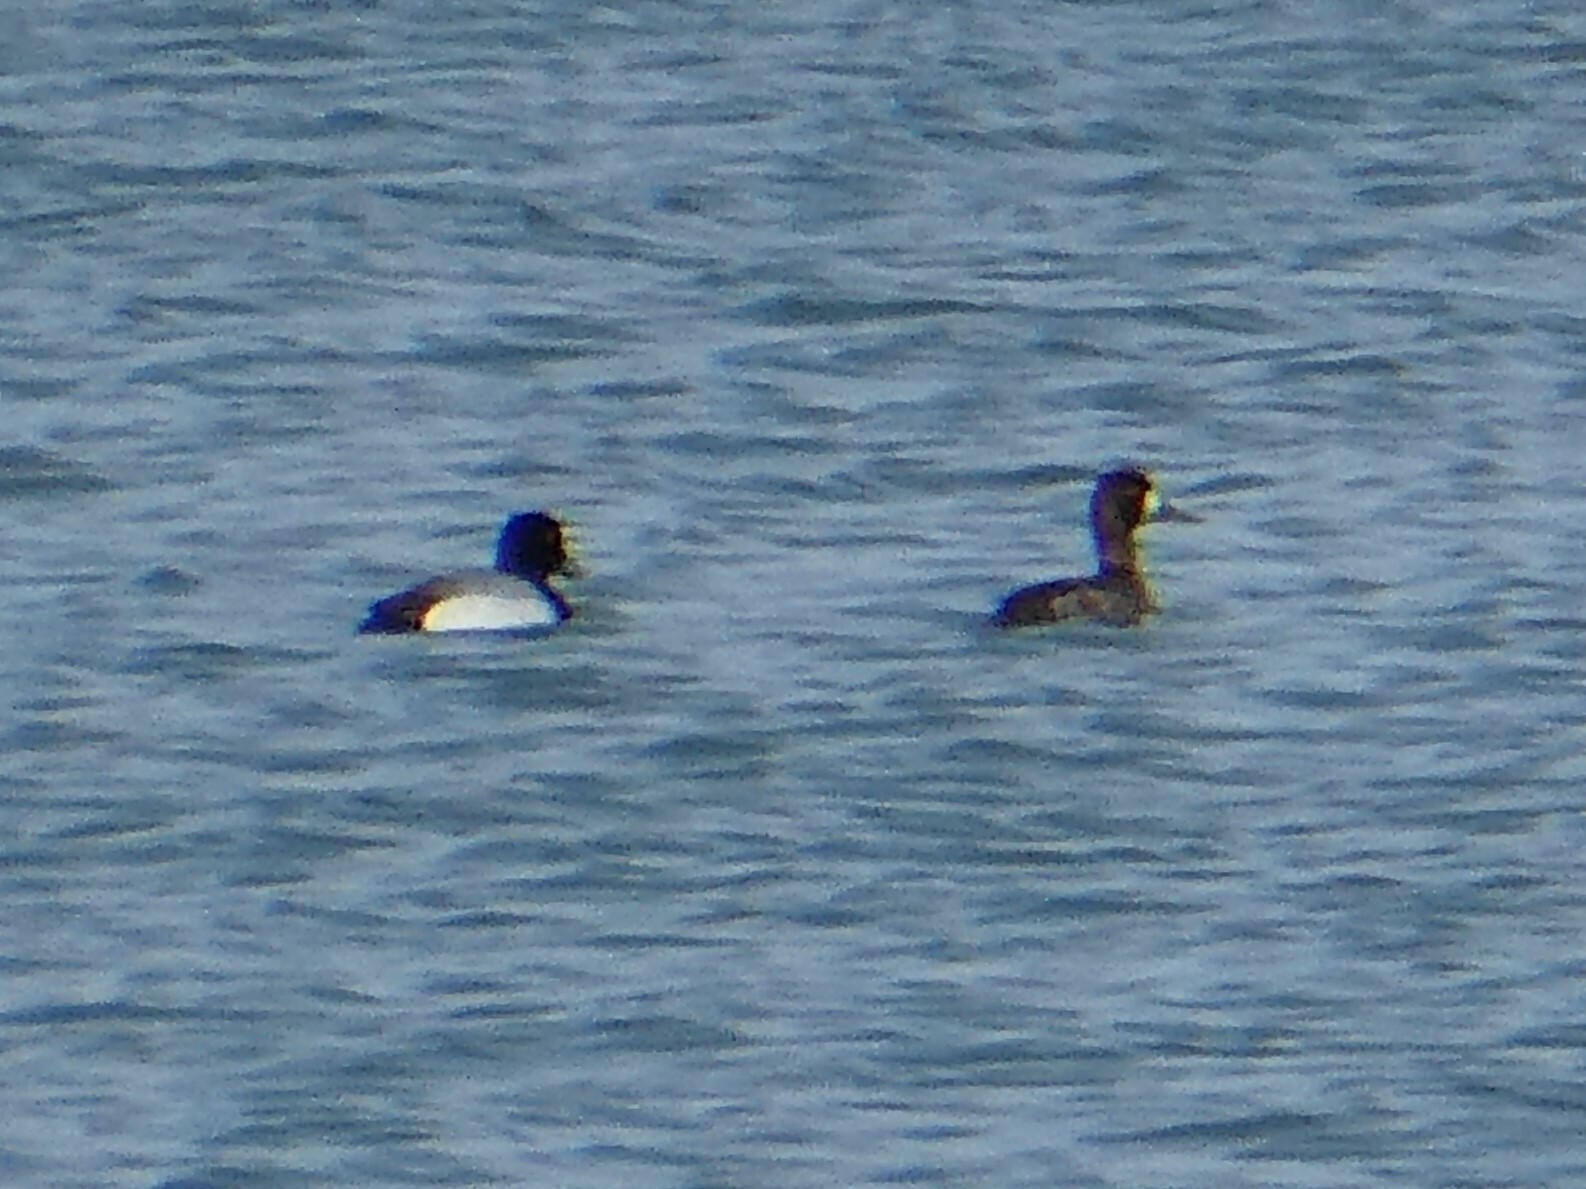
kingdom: Animalia
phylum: Chordata
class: Aves
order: Anseriformes
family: Anatidae
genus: Aythya
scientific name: Aythya affinis
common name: Lesser scaup
